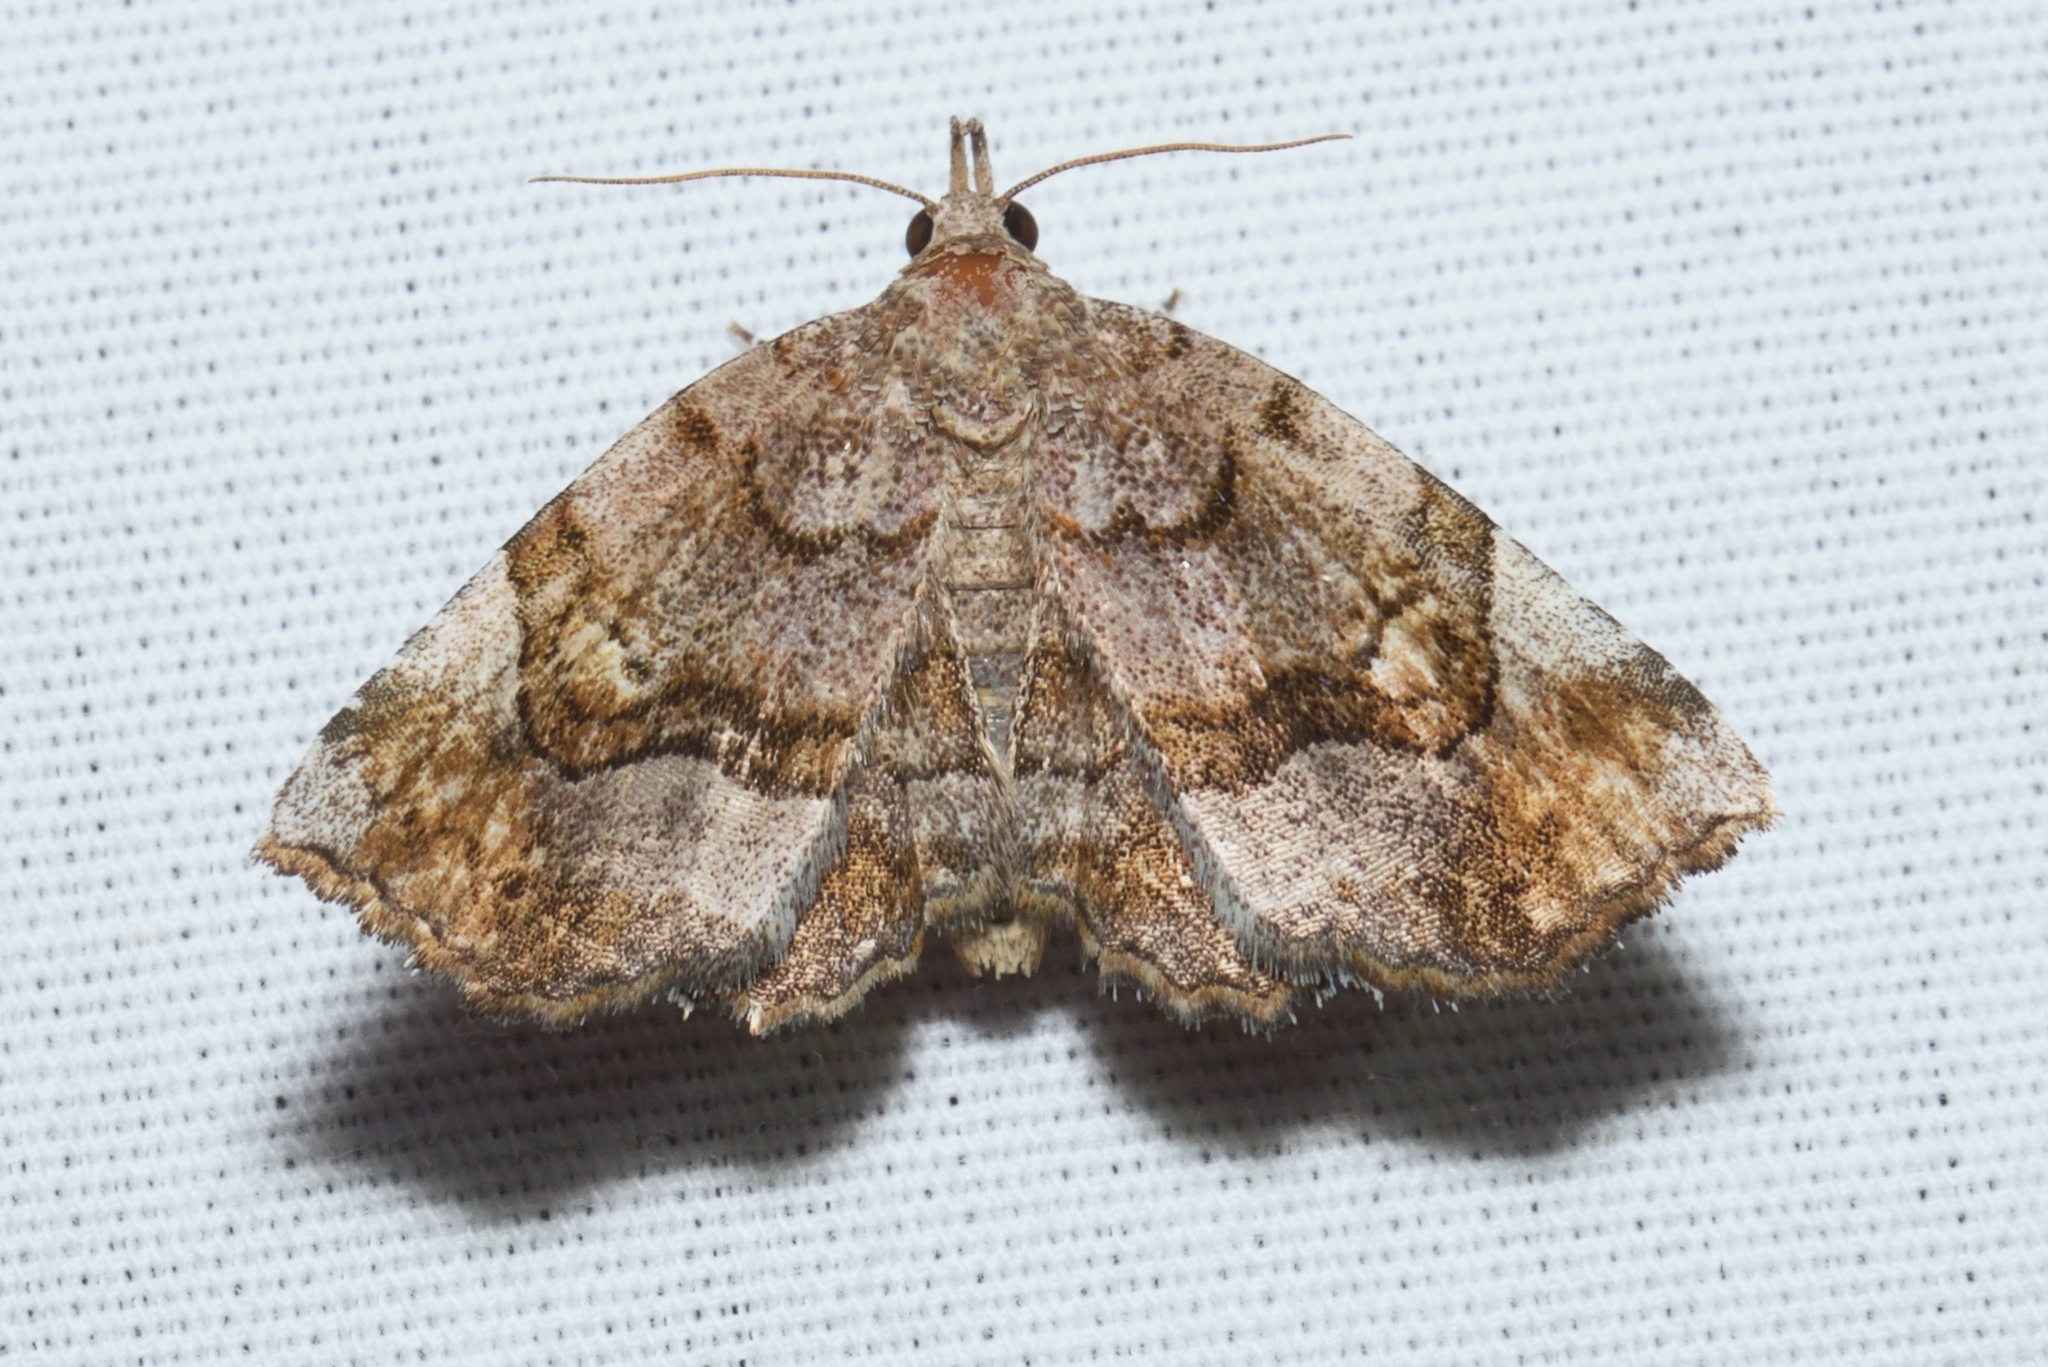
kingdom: Animalia
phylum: Arthropoda
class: Insecta
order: Lepidoptera
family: Erebidae
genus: Pangrapta
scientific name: Pangrapta decoralis
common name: Decorated owlet
